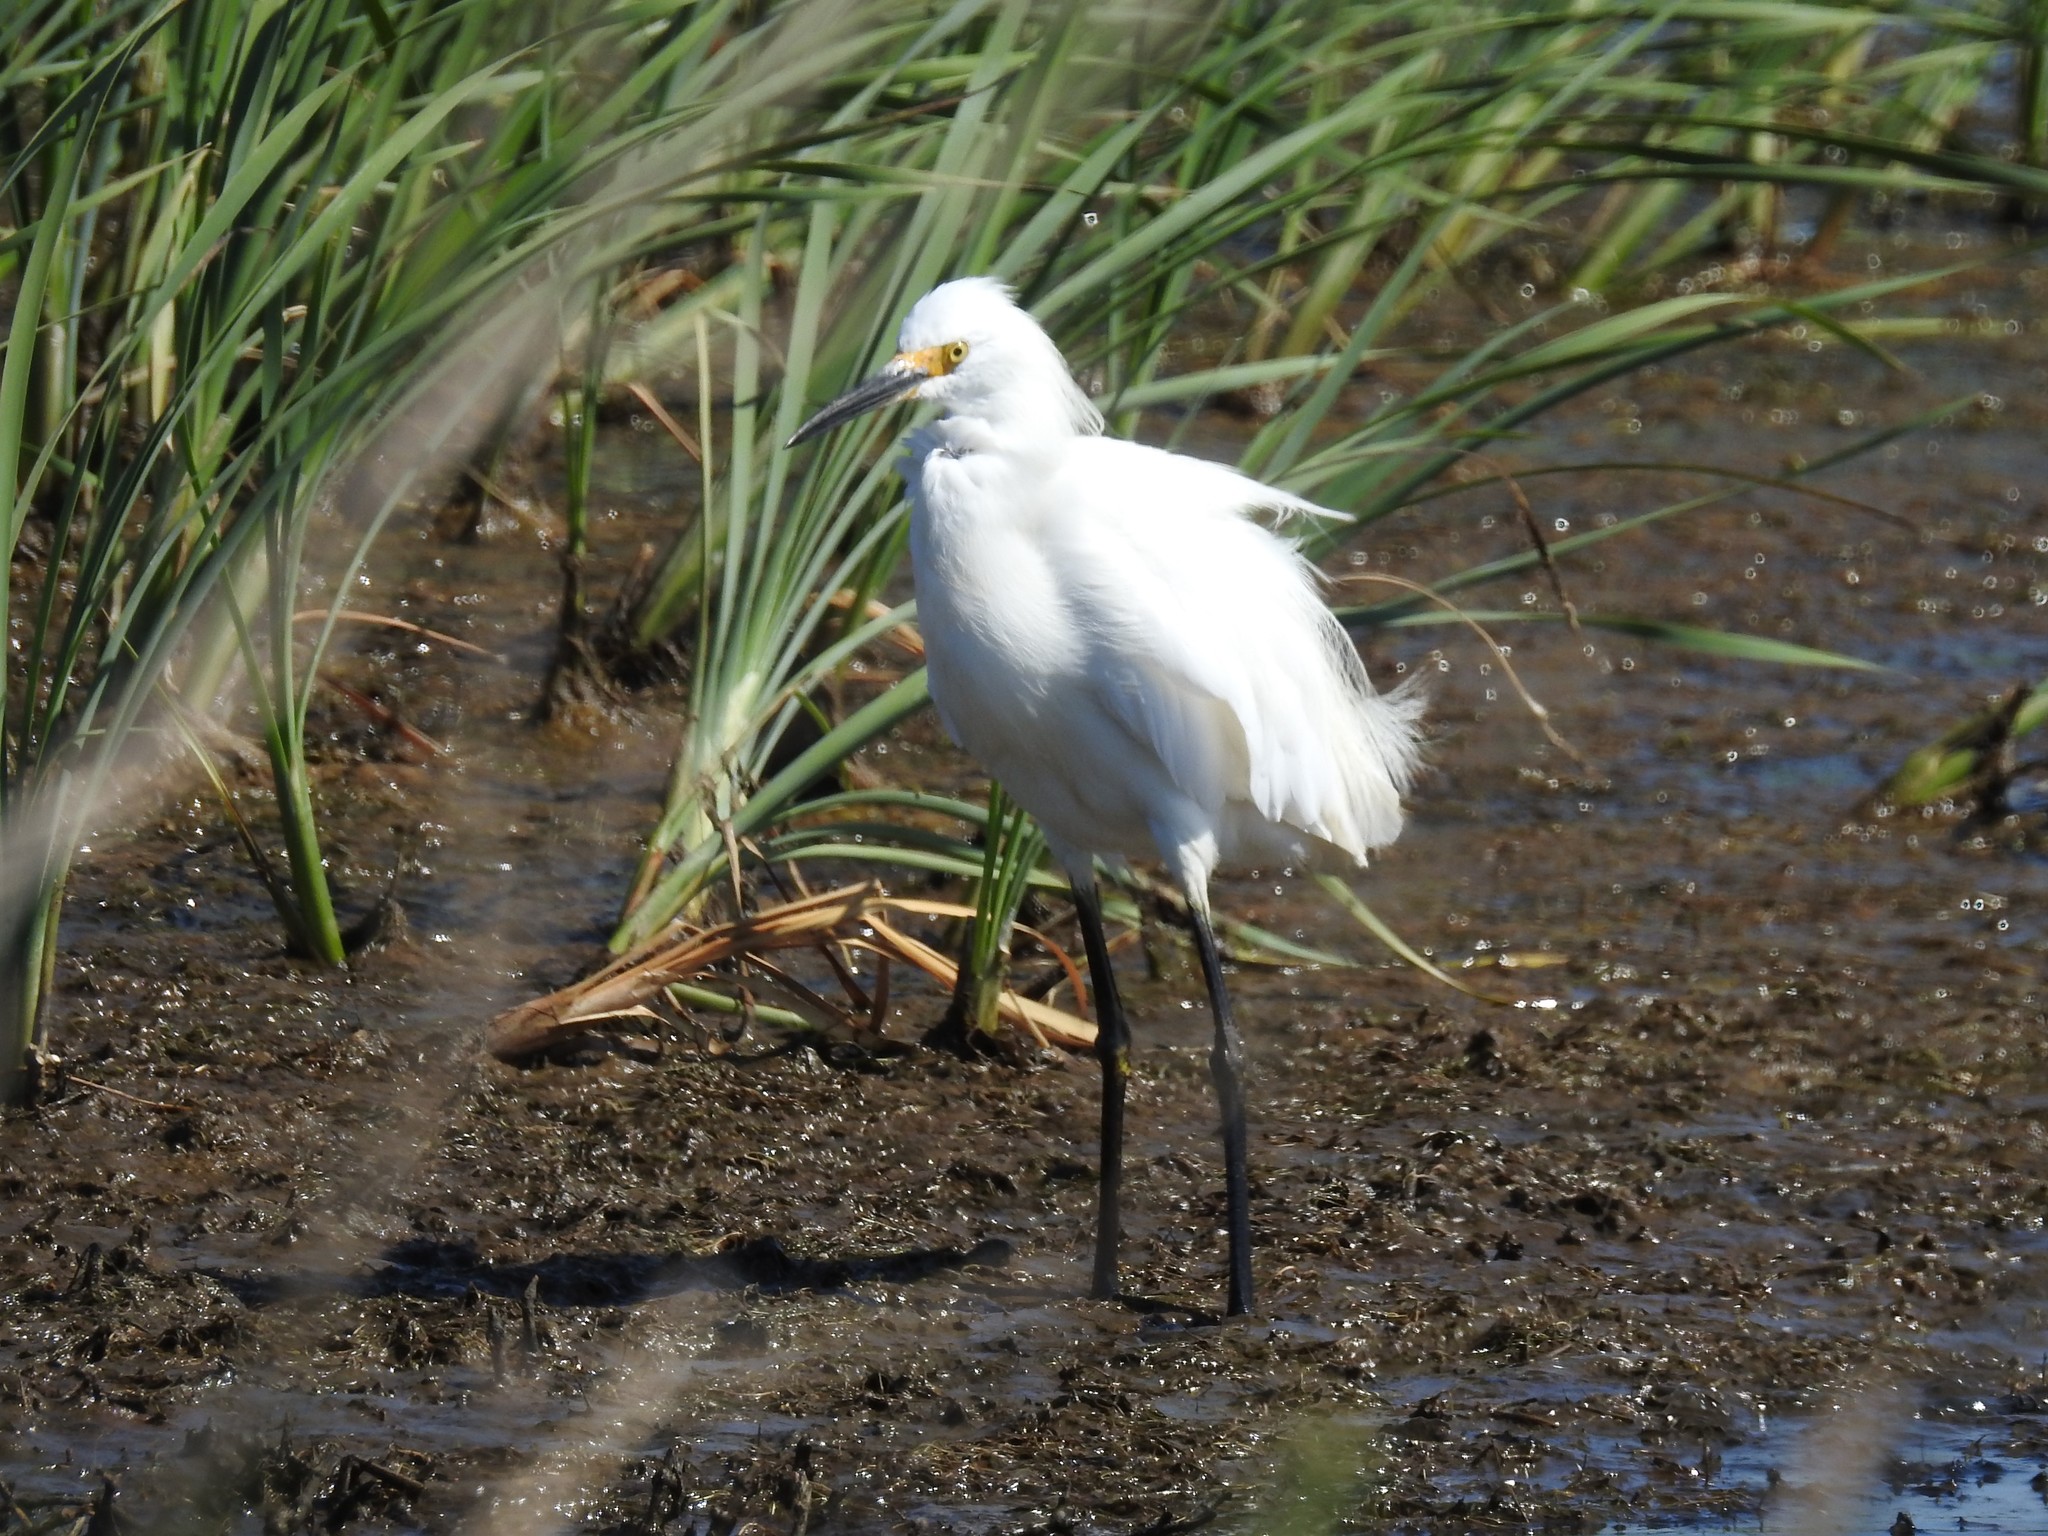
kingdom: Animalia
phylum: Chordata
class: Aves
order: Pelecaniformes
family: Ardeidae
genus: Egretta
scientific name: Egretta thula
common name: Snowy egret
